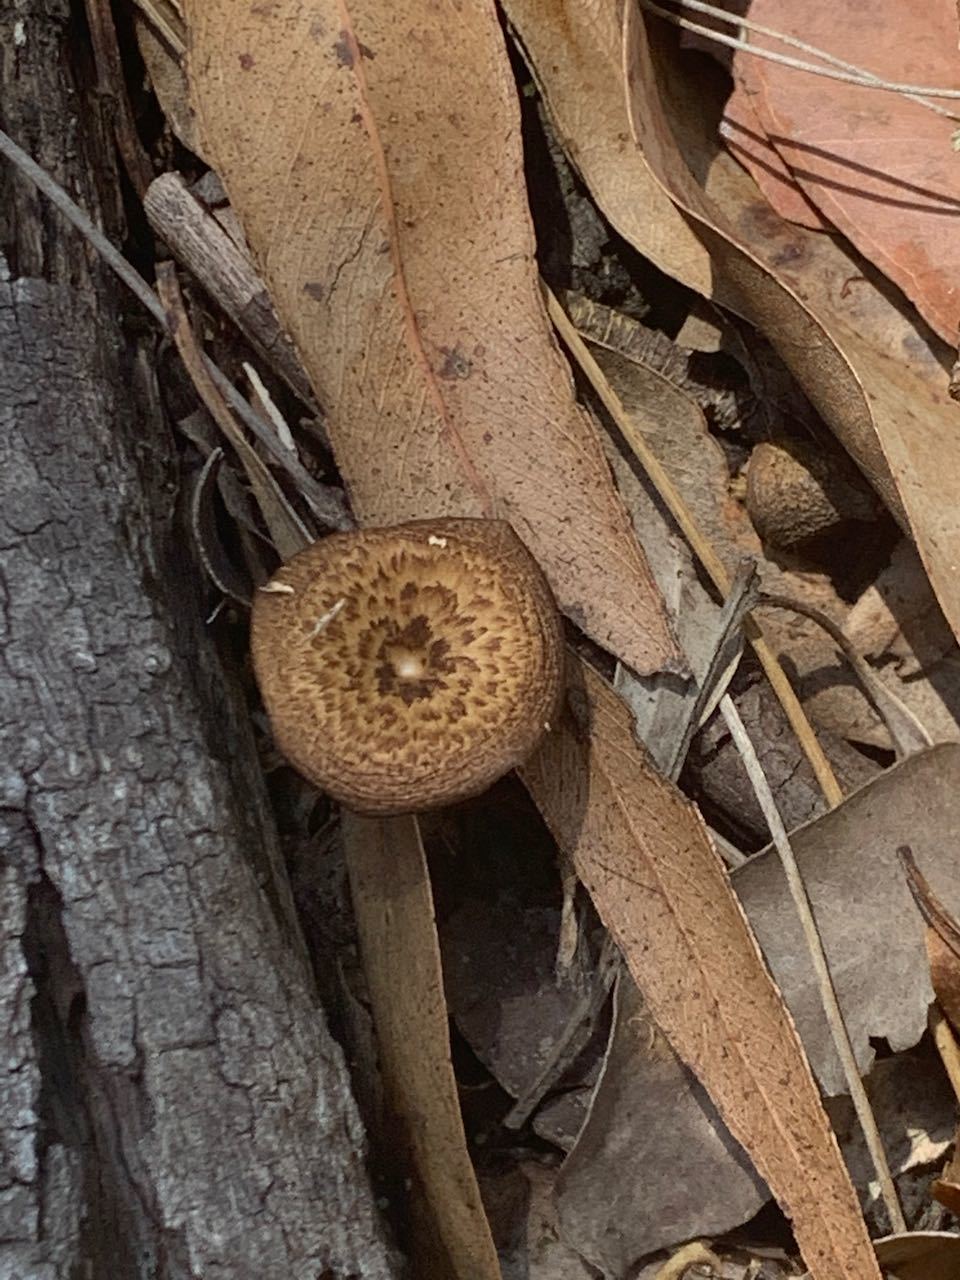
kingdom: Fungi
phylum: Basidiomycota
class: Agaricomycetes
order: Polyporales
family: Polyporaceae
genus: Lentinus
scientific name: Lentinus arcularius
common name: Spring polypore
